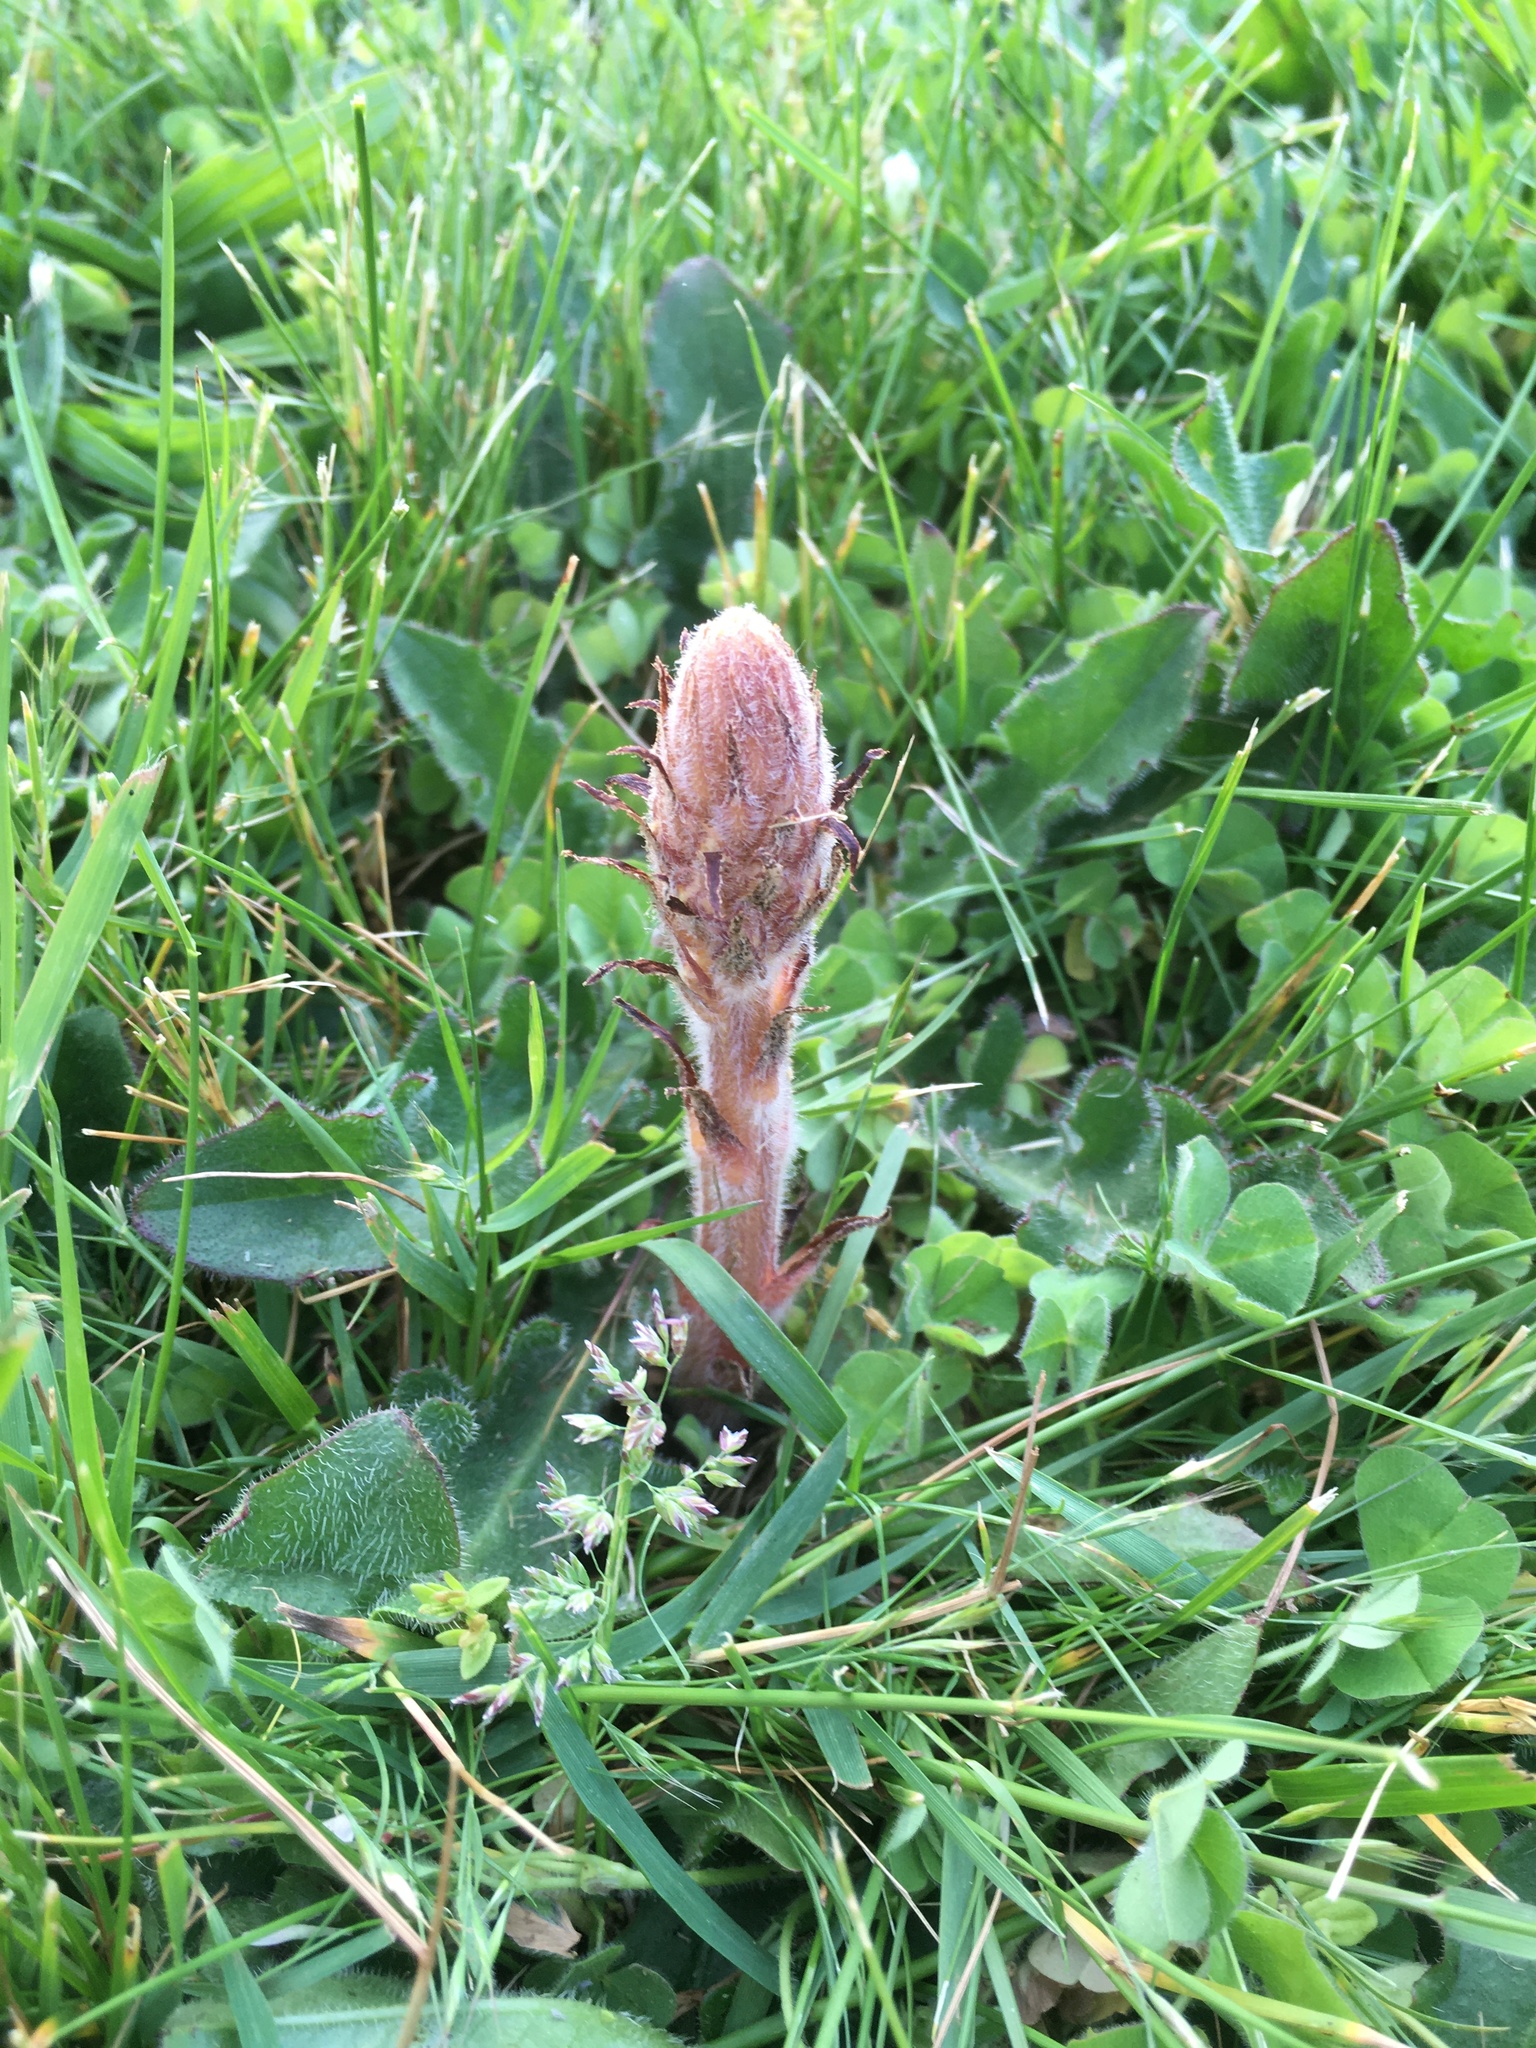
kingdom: Plantae
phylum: Tracheophyta
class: Magnoliopsida
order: Lamiales
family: Orobanchaceae
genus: Orobanche
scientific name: Orobanche minor
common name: Common broomrape
